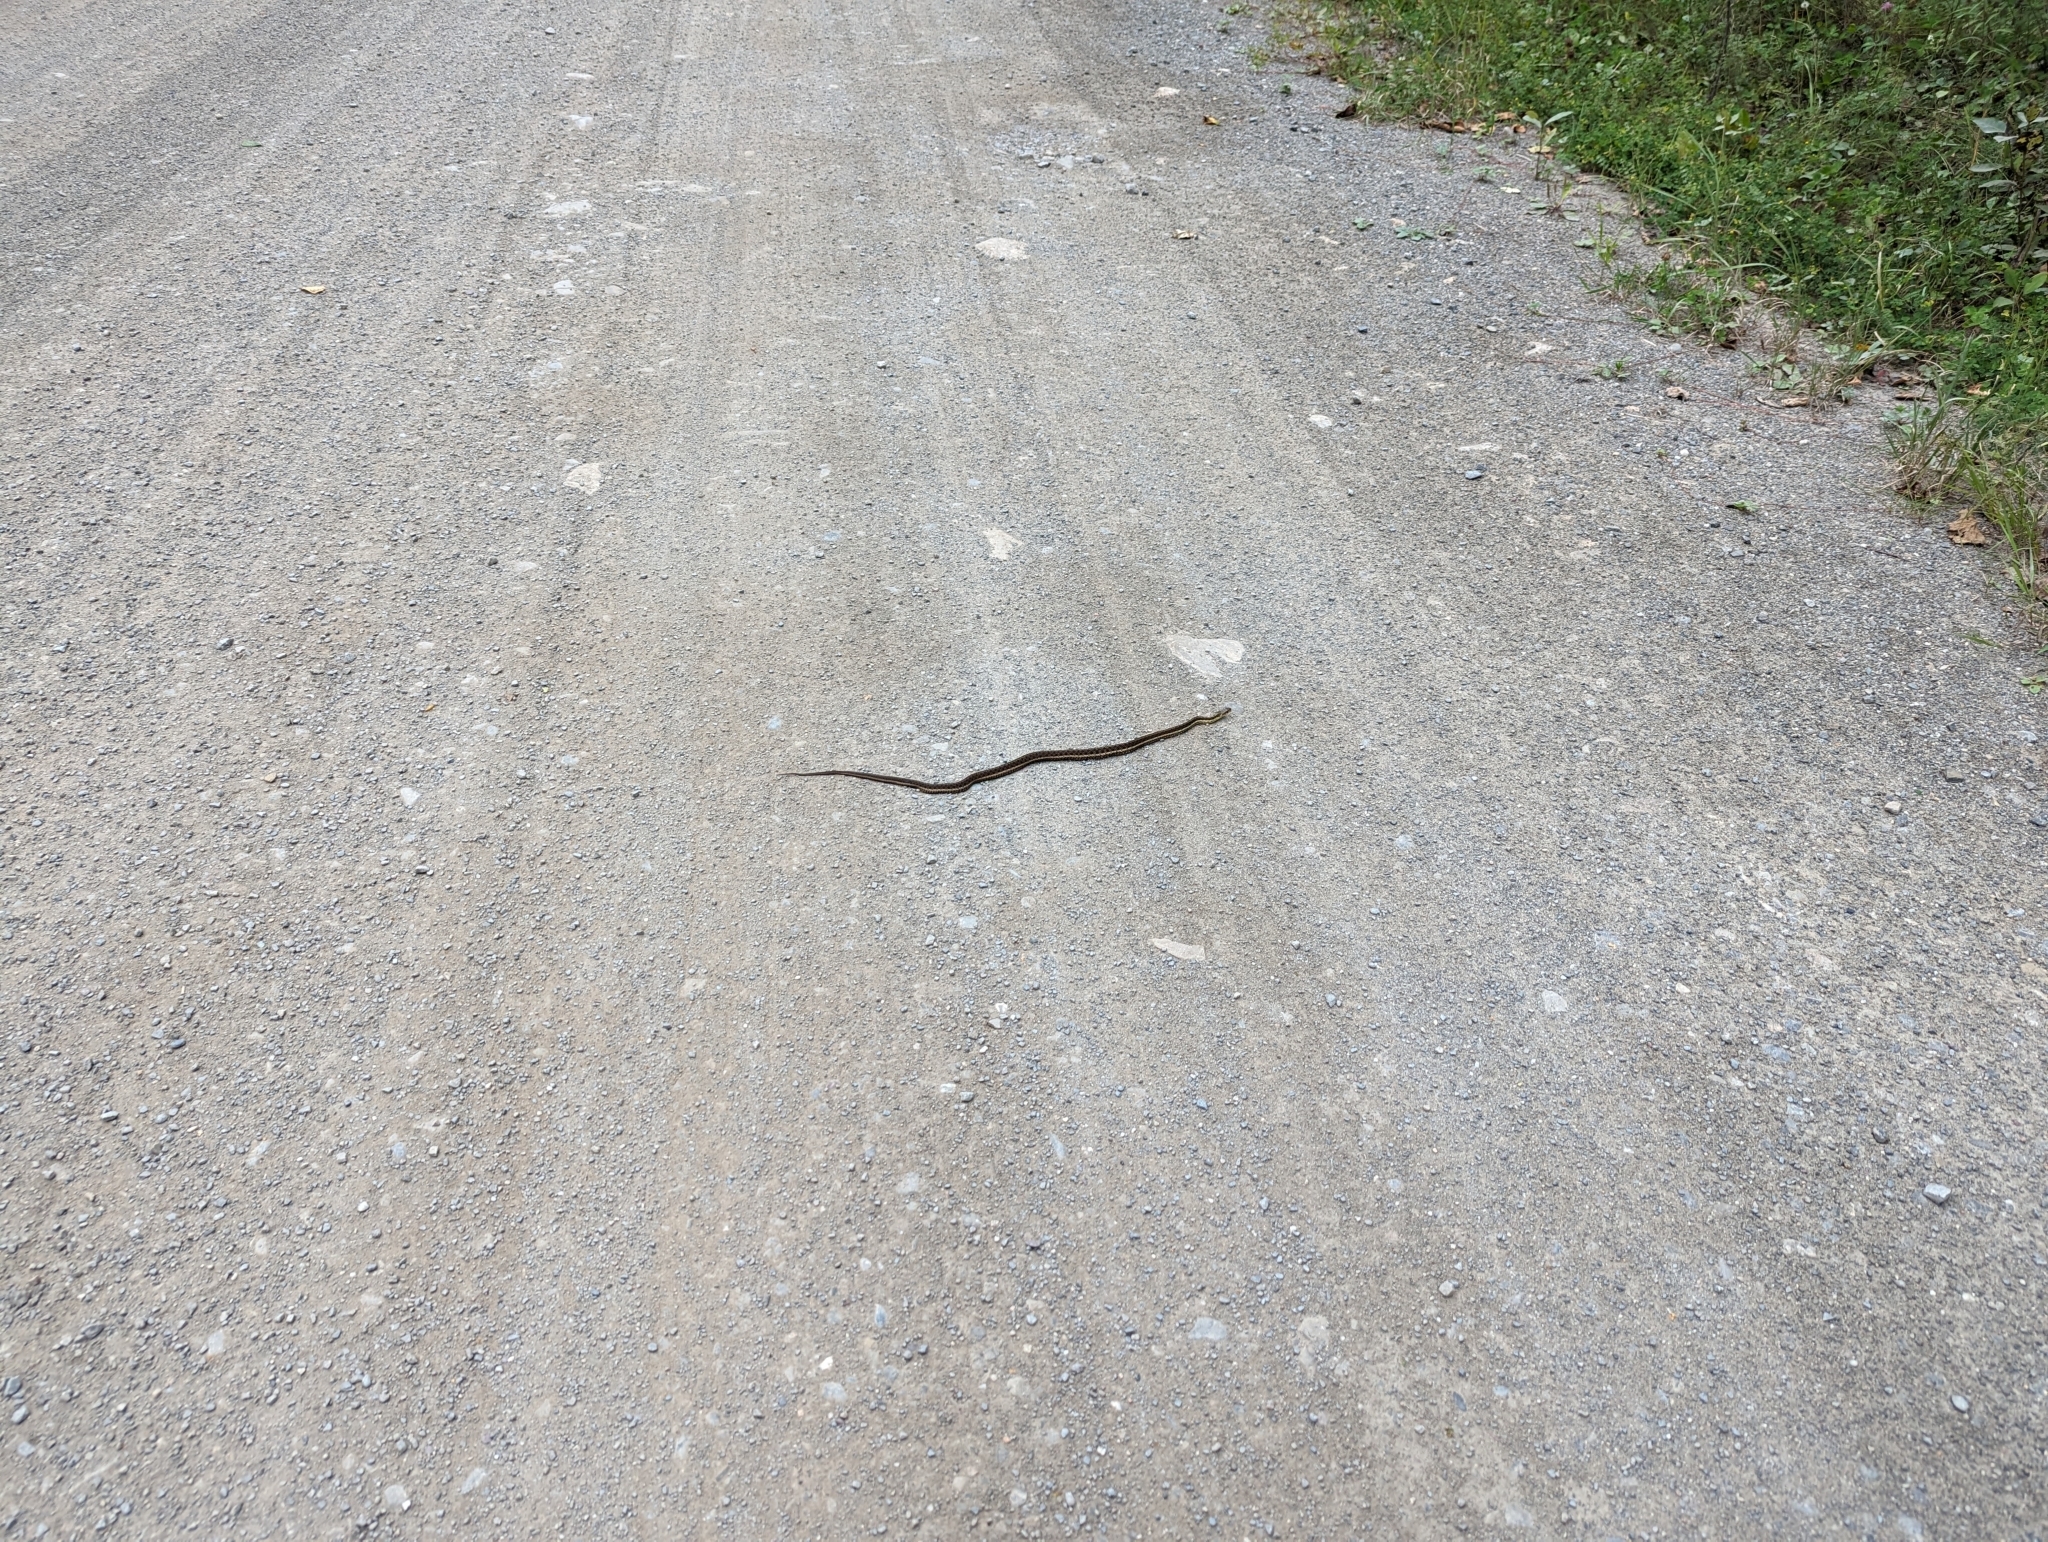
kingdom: Animalia
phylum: Chordata
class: Squamata
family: Colubridae
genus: Thamnophis
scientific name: Thamnophis sirtalis
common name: Common garter snake
